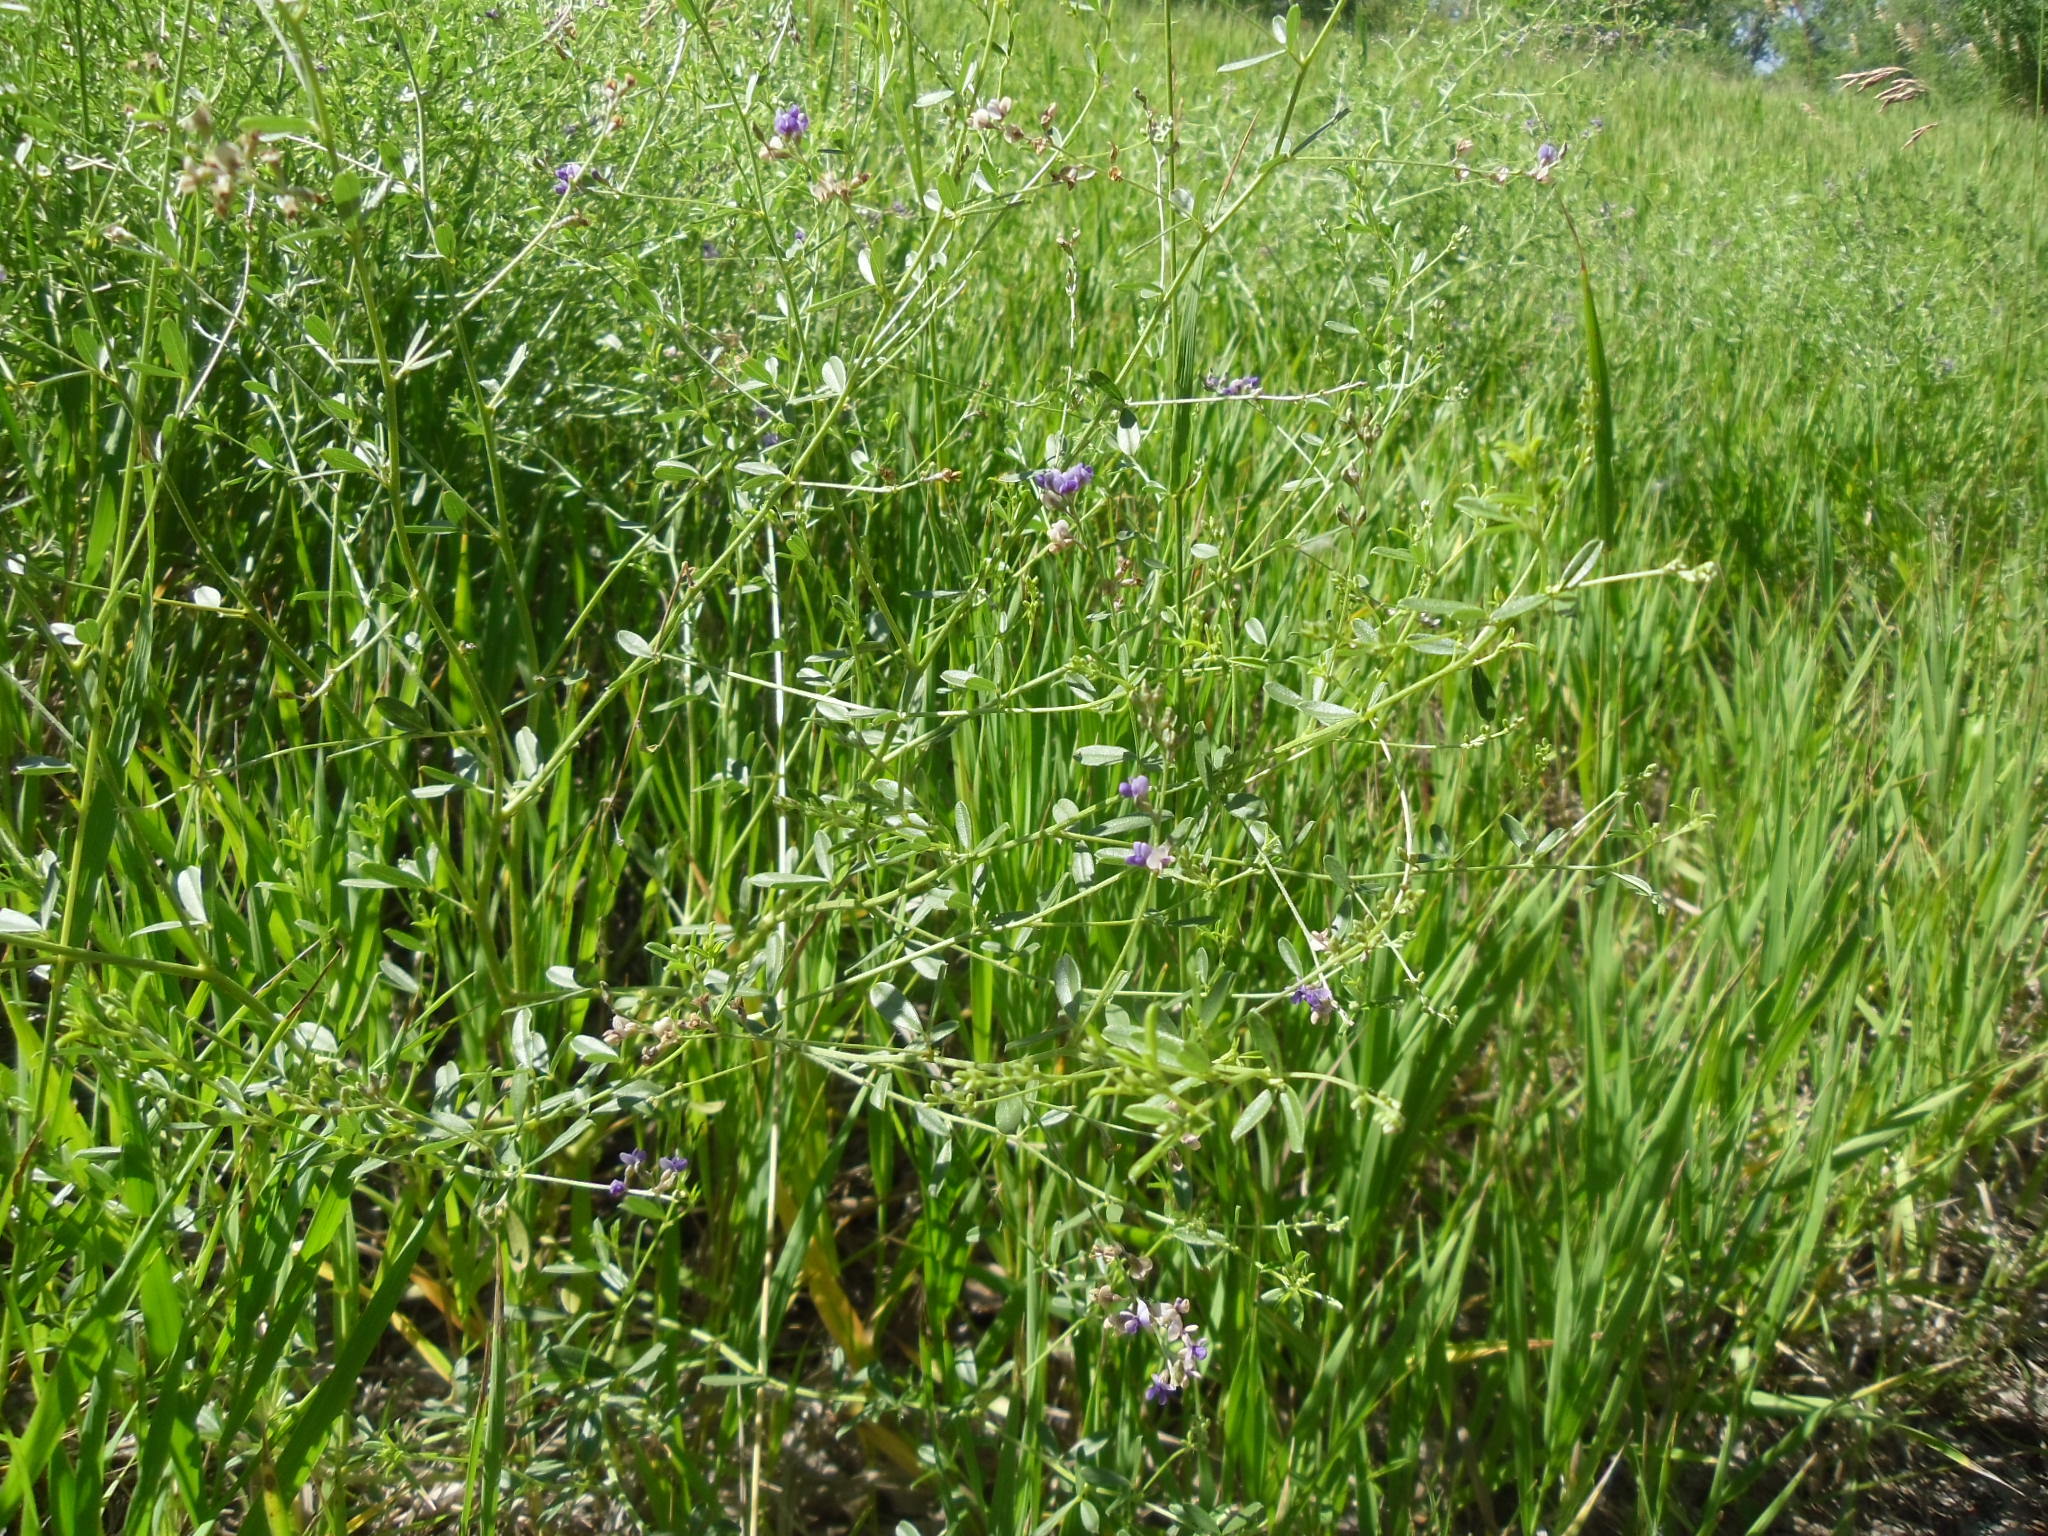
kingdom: Plantae
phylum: Tracheophyta
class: Magnoliopsida
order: Fabales
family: Fabaceae
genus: Pediomelum
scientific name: Pediomelum tenuiflorum
